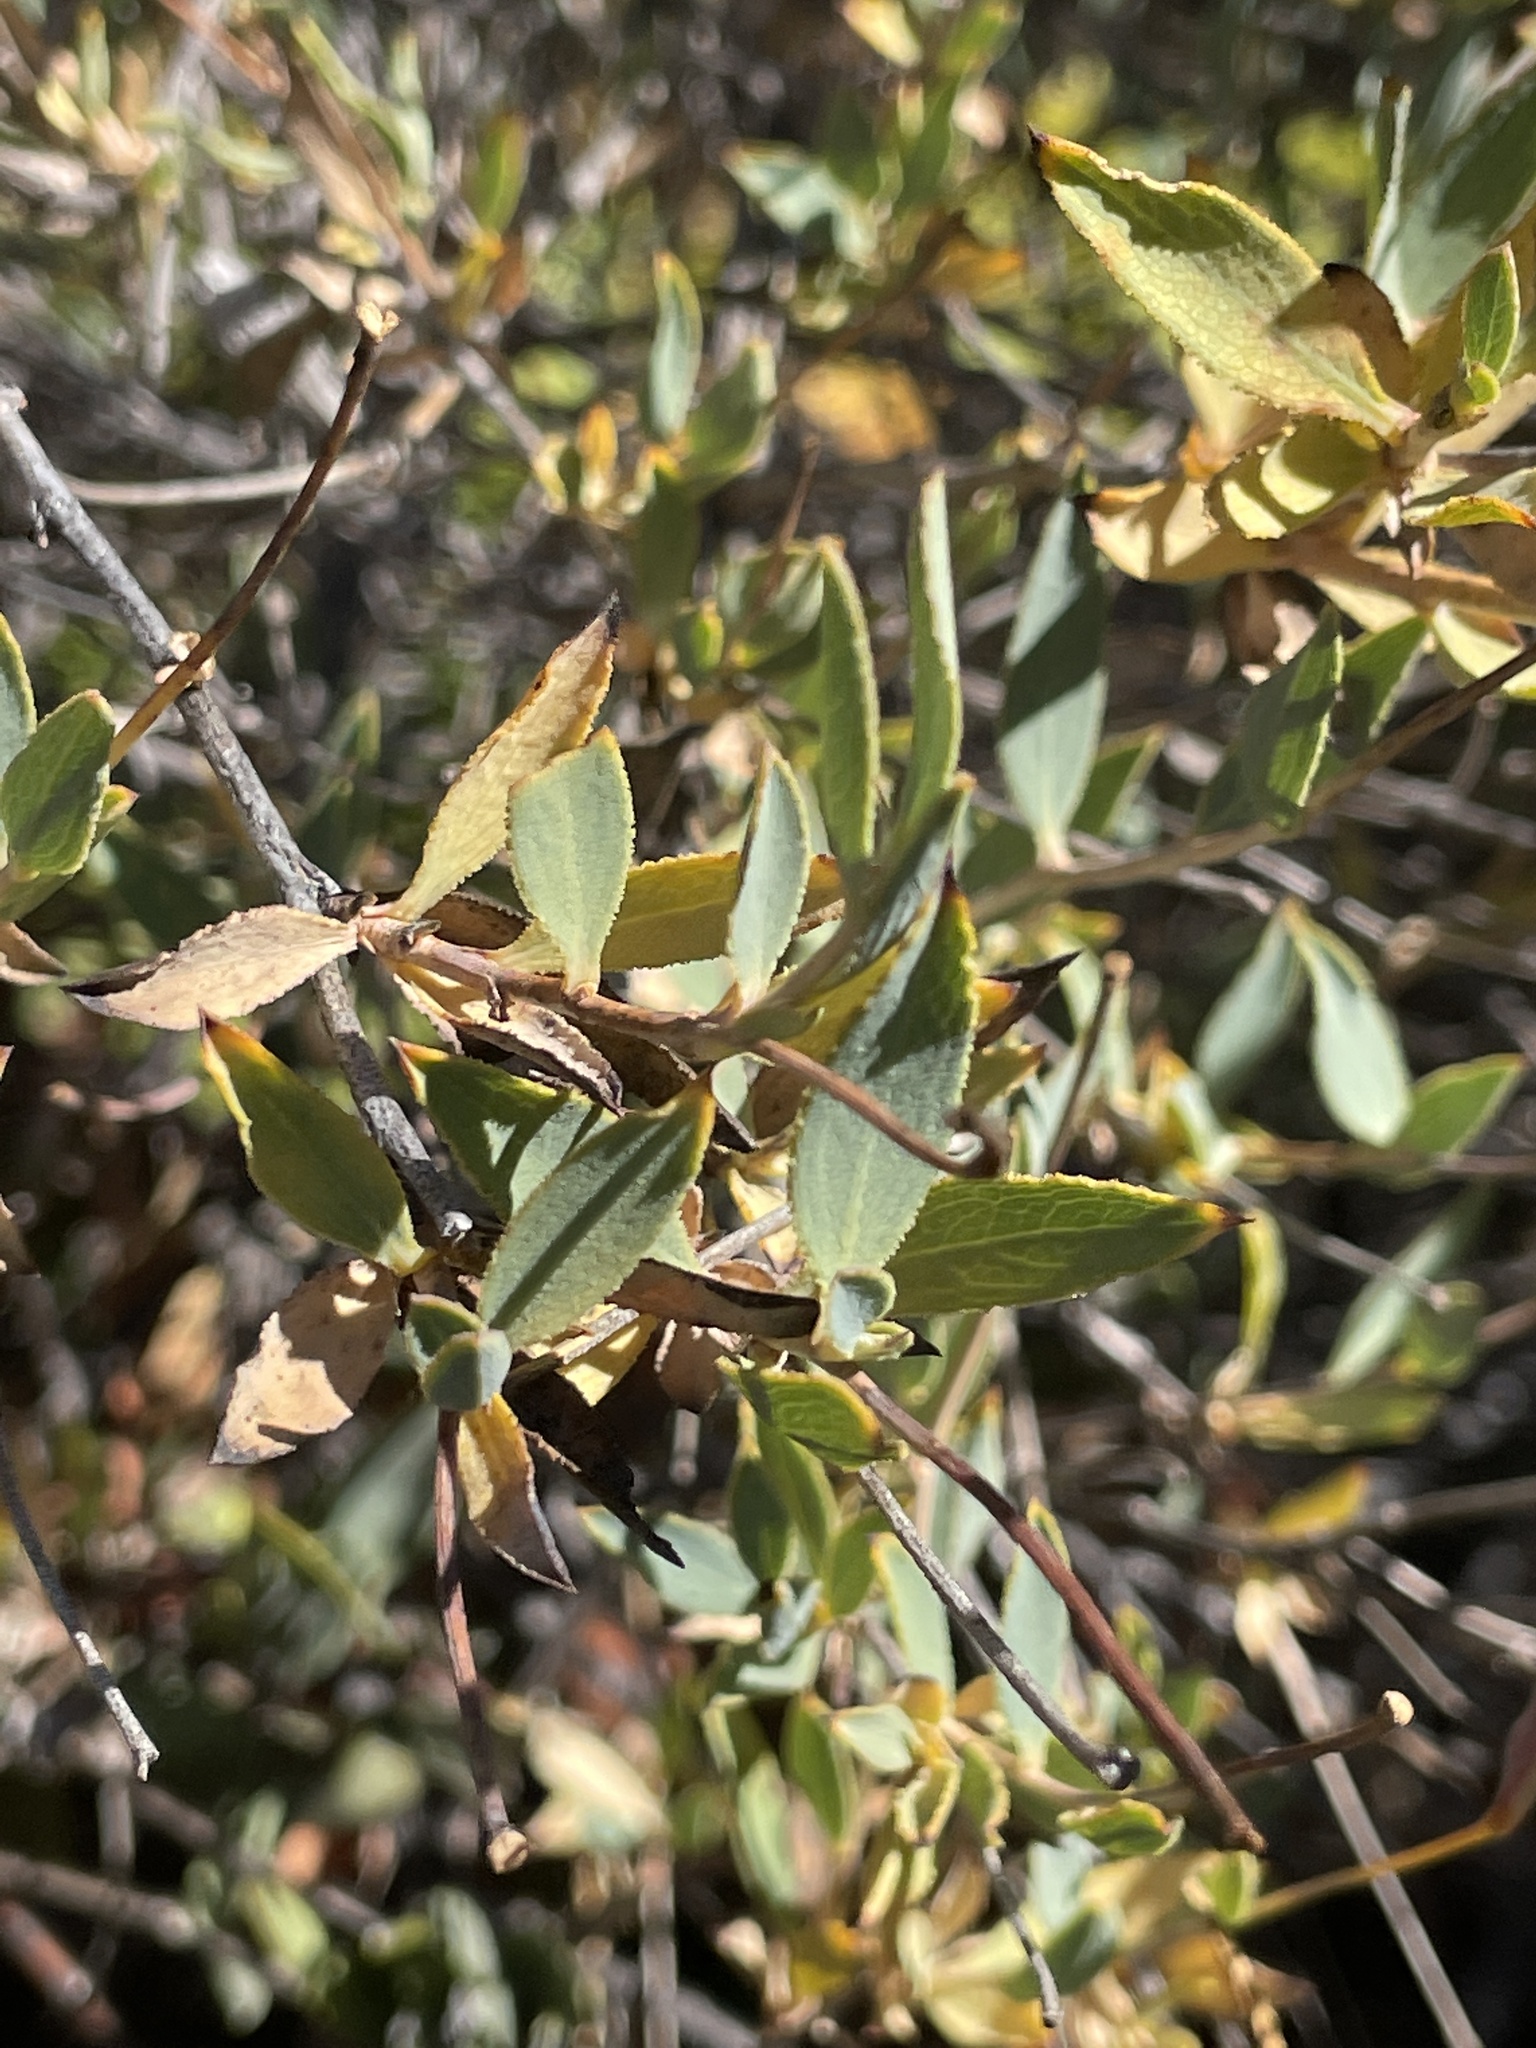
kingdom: Plantae
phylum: Tracheophyta
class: Magnoliopsida
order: Ranunculales
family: Papaveraceae
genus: Dendromecon
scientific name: Dendromecon rigida
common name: Tree poppy
